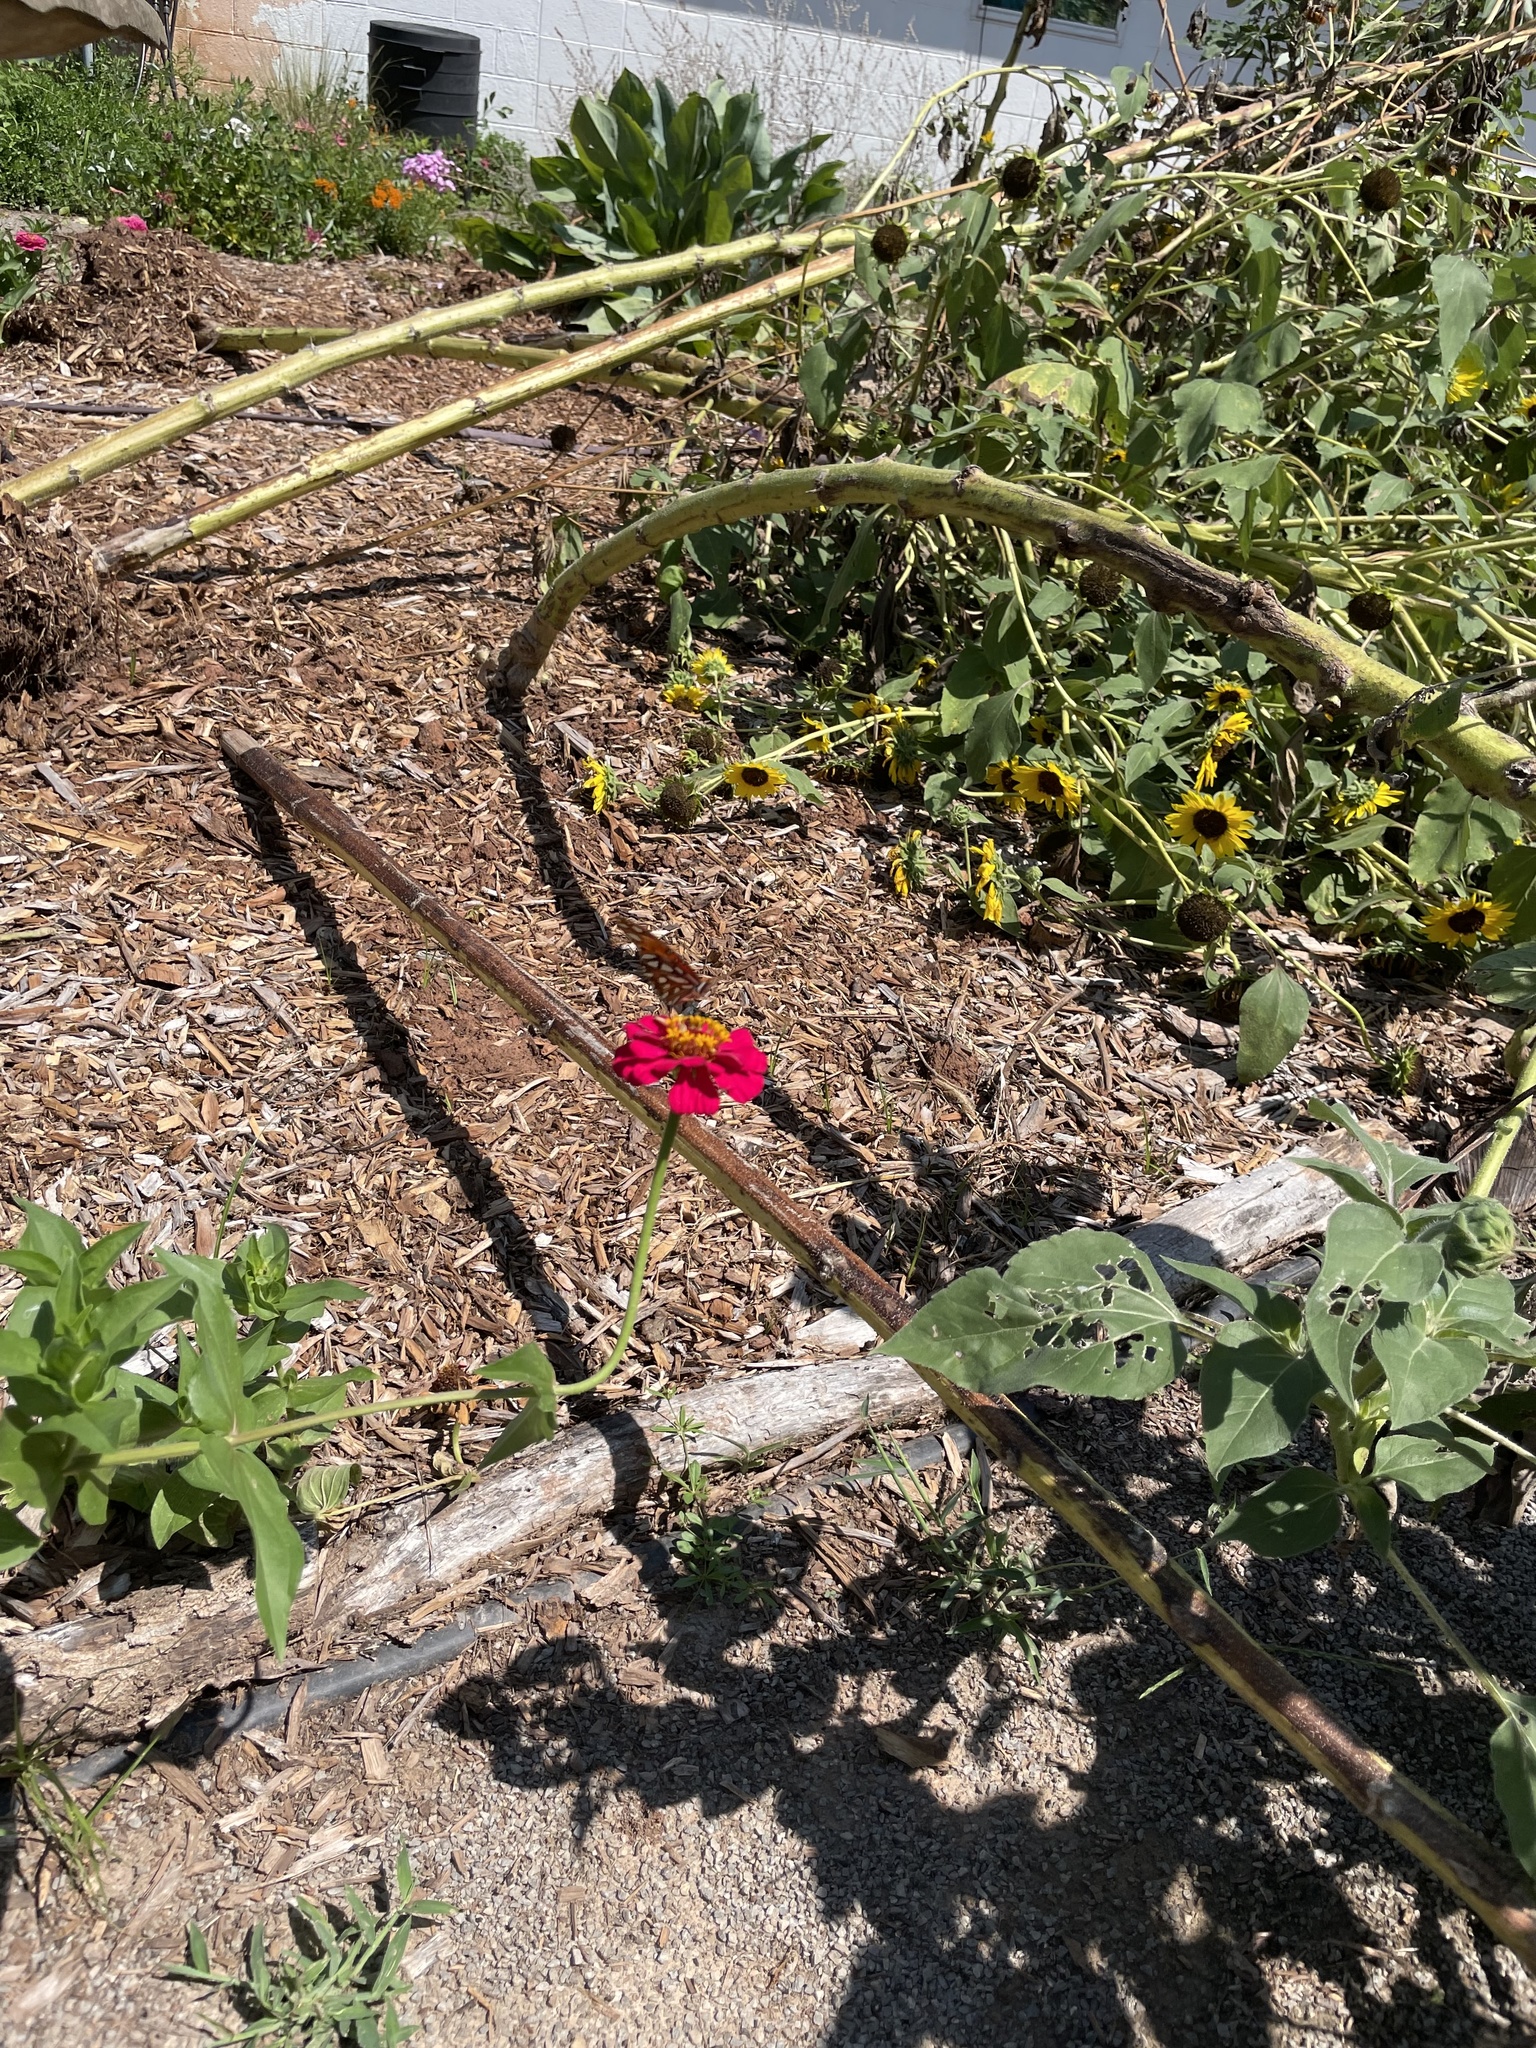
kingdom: Animalia
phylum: Arthropoda
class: Insecta
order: Lepidoptera
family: Nymphalidae
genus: Dione
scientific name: Dione vanillae
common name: Gulf fritillary
